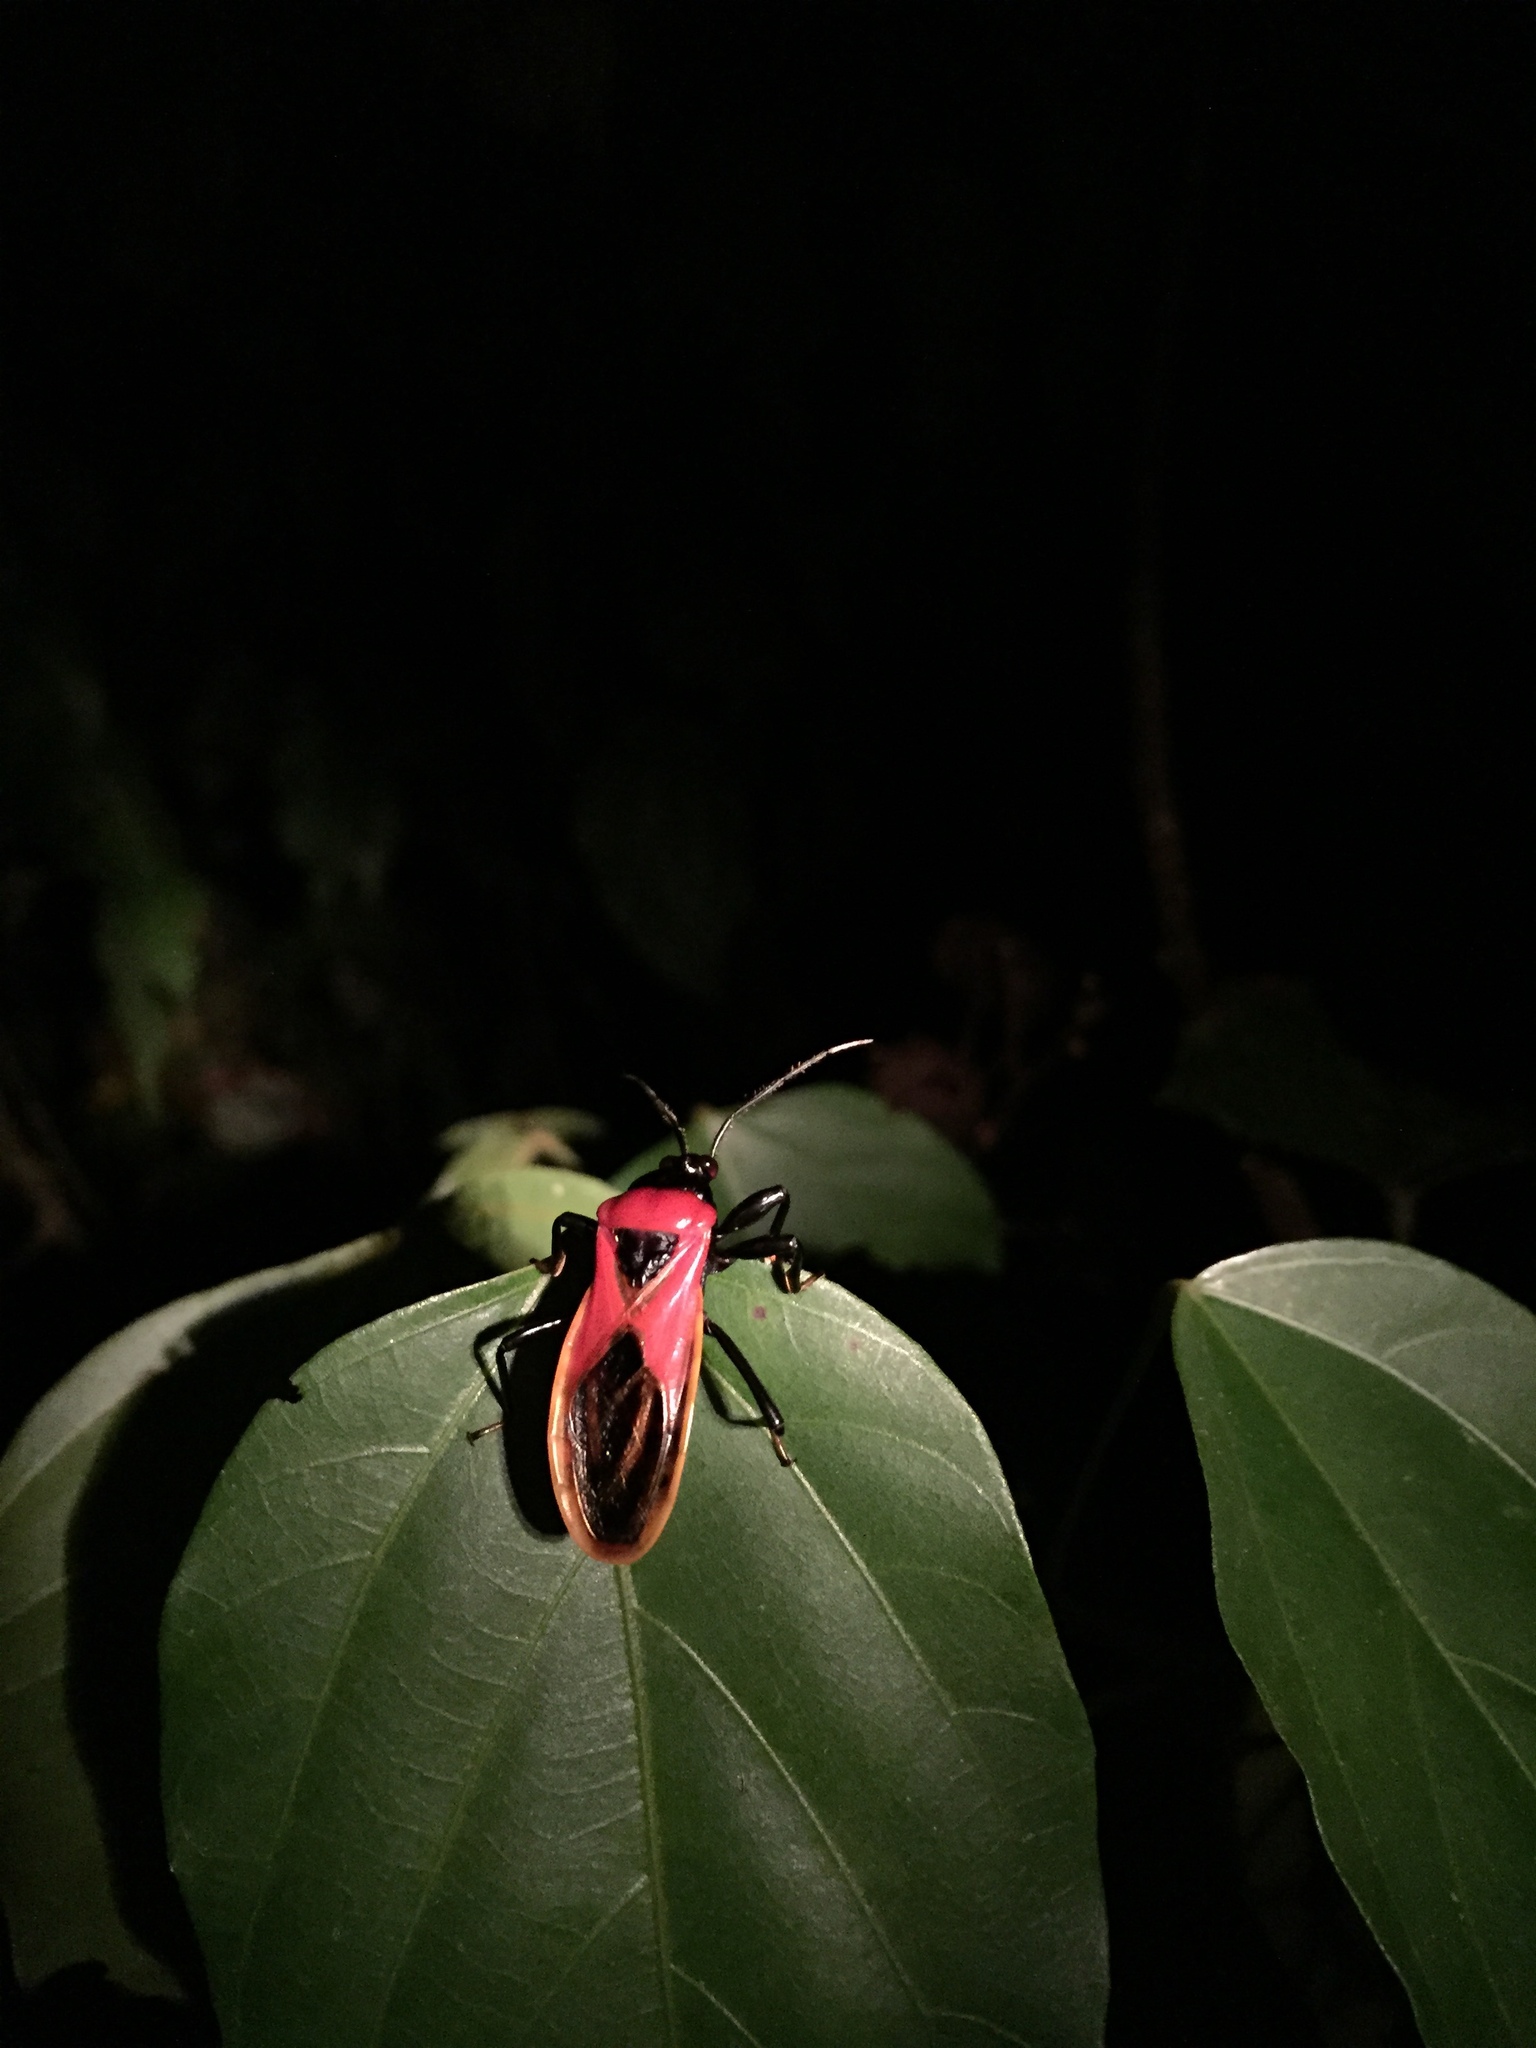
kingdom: Animalia
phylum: Arthropoda
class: Insecta
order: Hemiptera
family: Reduviidae
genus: Brontostoma
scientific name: Brontostoma basale
